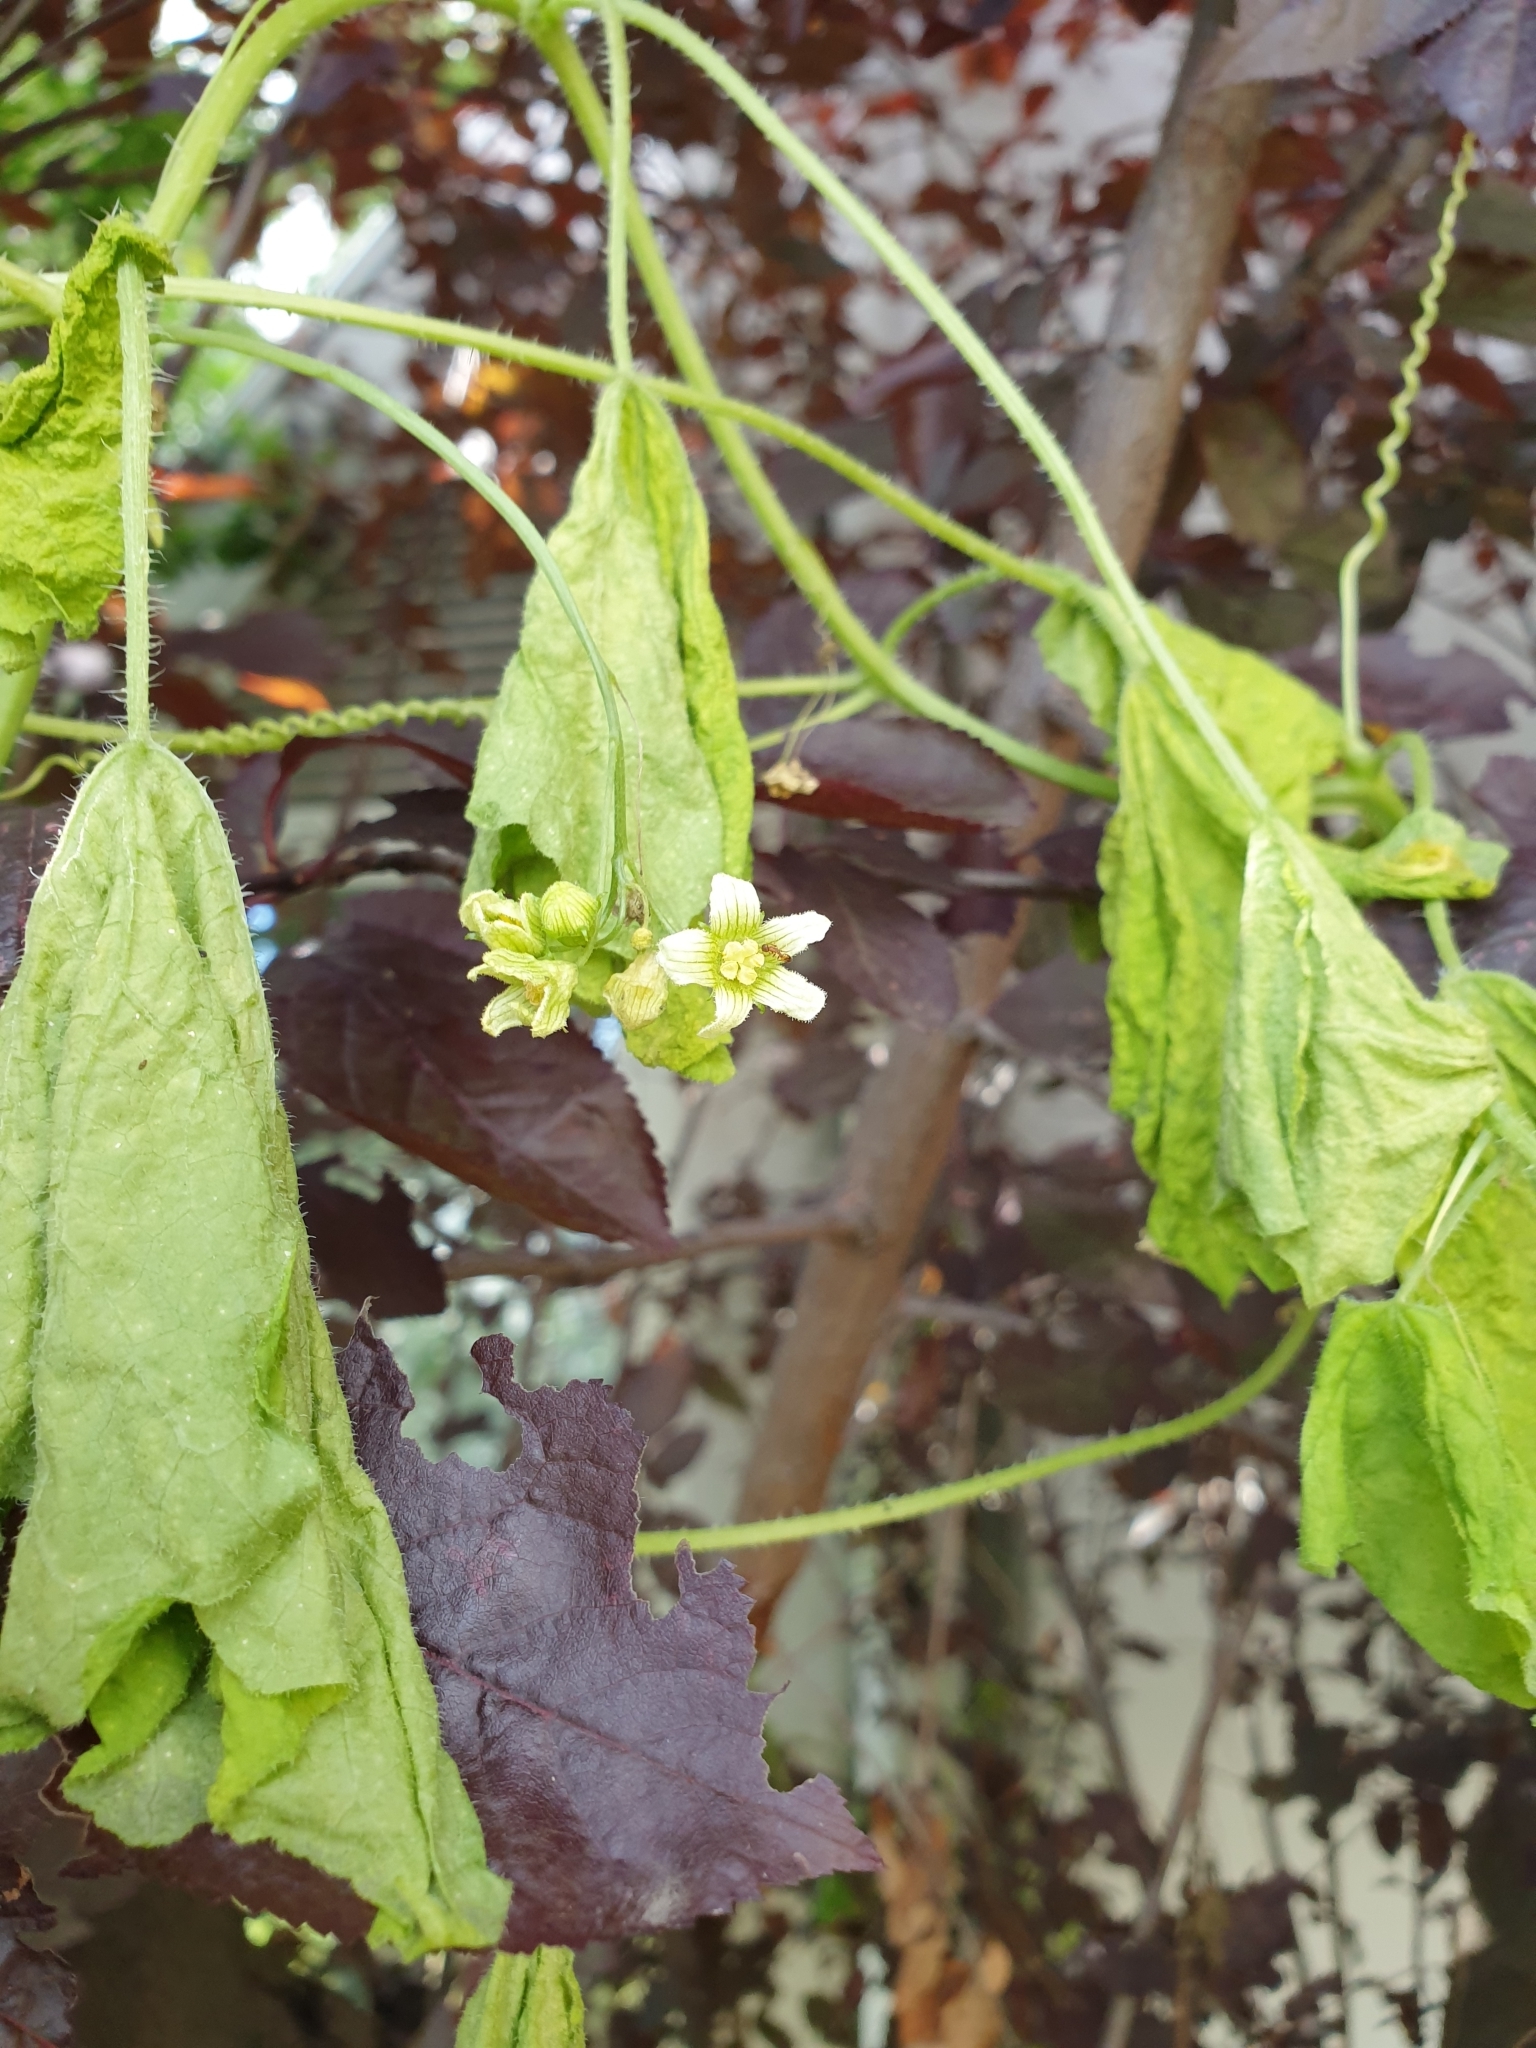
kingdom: Plantae
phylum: Tracheophyta
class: Magnoliopsida
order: Cucurbitales
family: Cucurbitaceae
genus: Bryonia
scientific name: Bryonia cretica
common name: Cretan bryony
